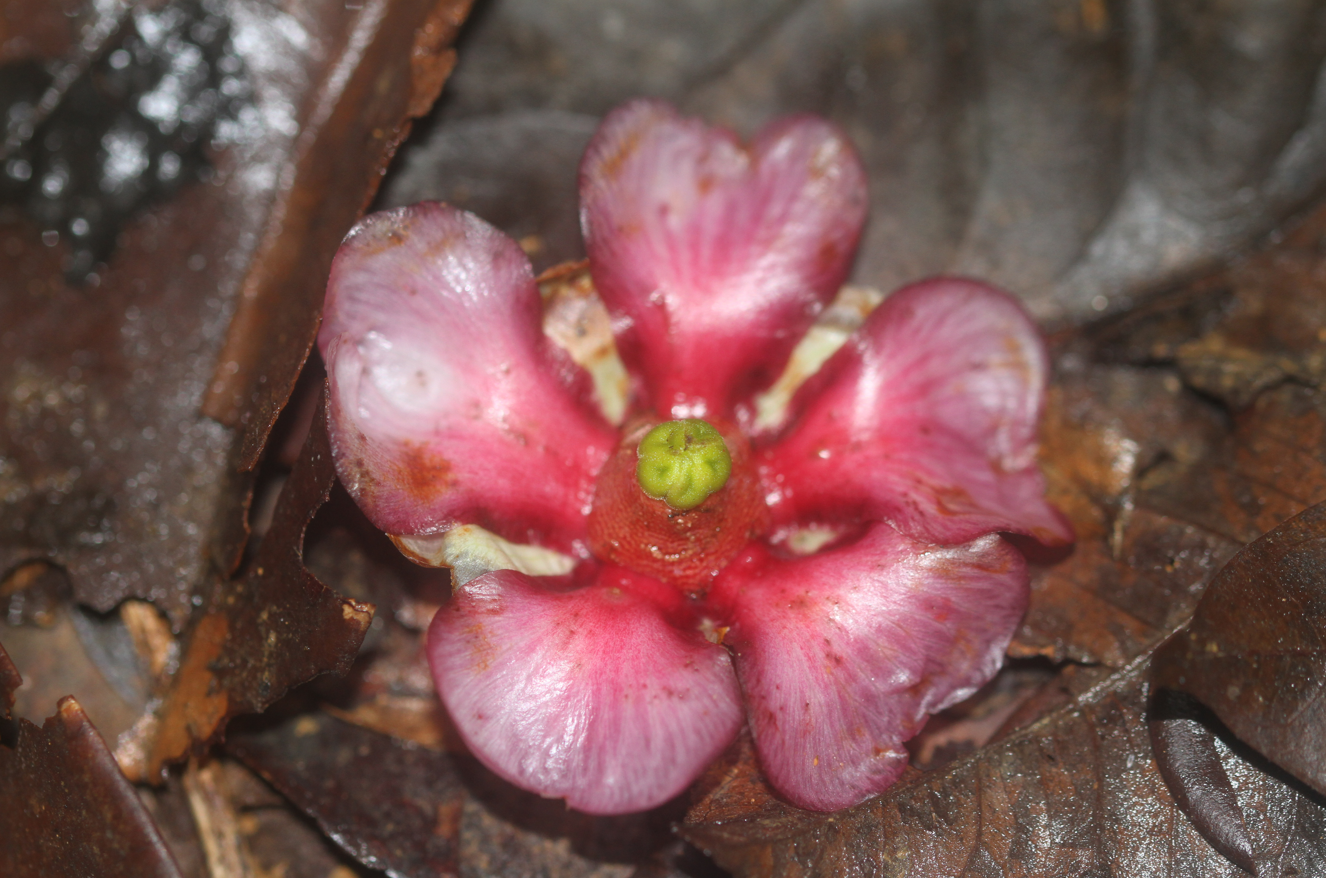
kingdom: Plantae
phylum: Tracheophyta
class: Magnoliopsida
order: Malpighiales
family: Clusiaceae
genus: Clusia
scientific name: Clusia leprantha
